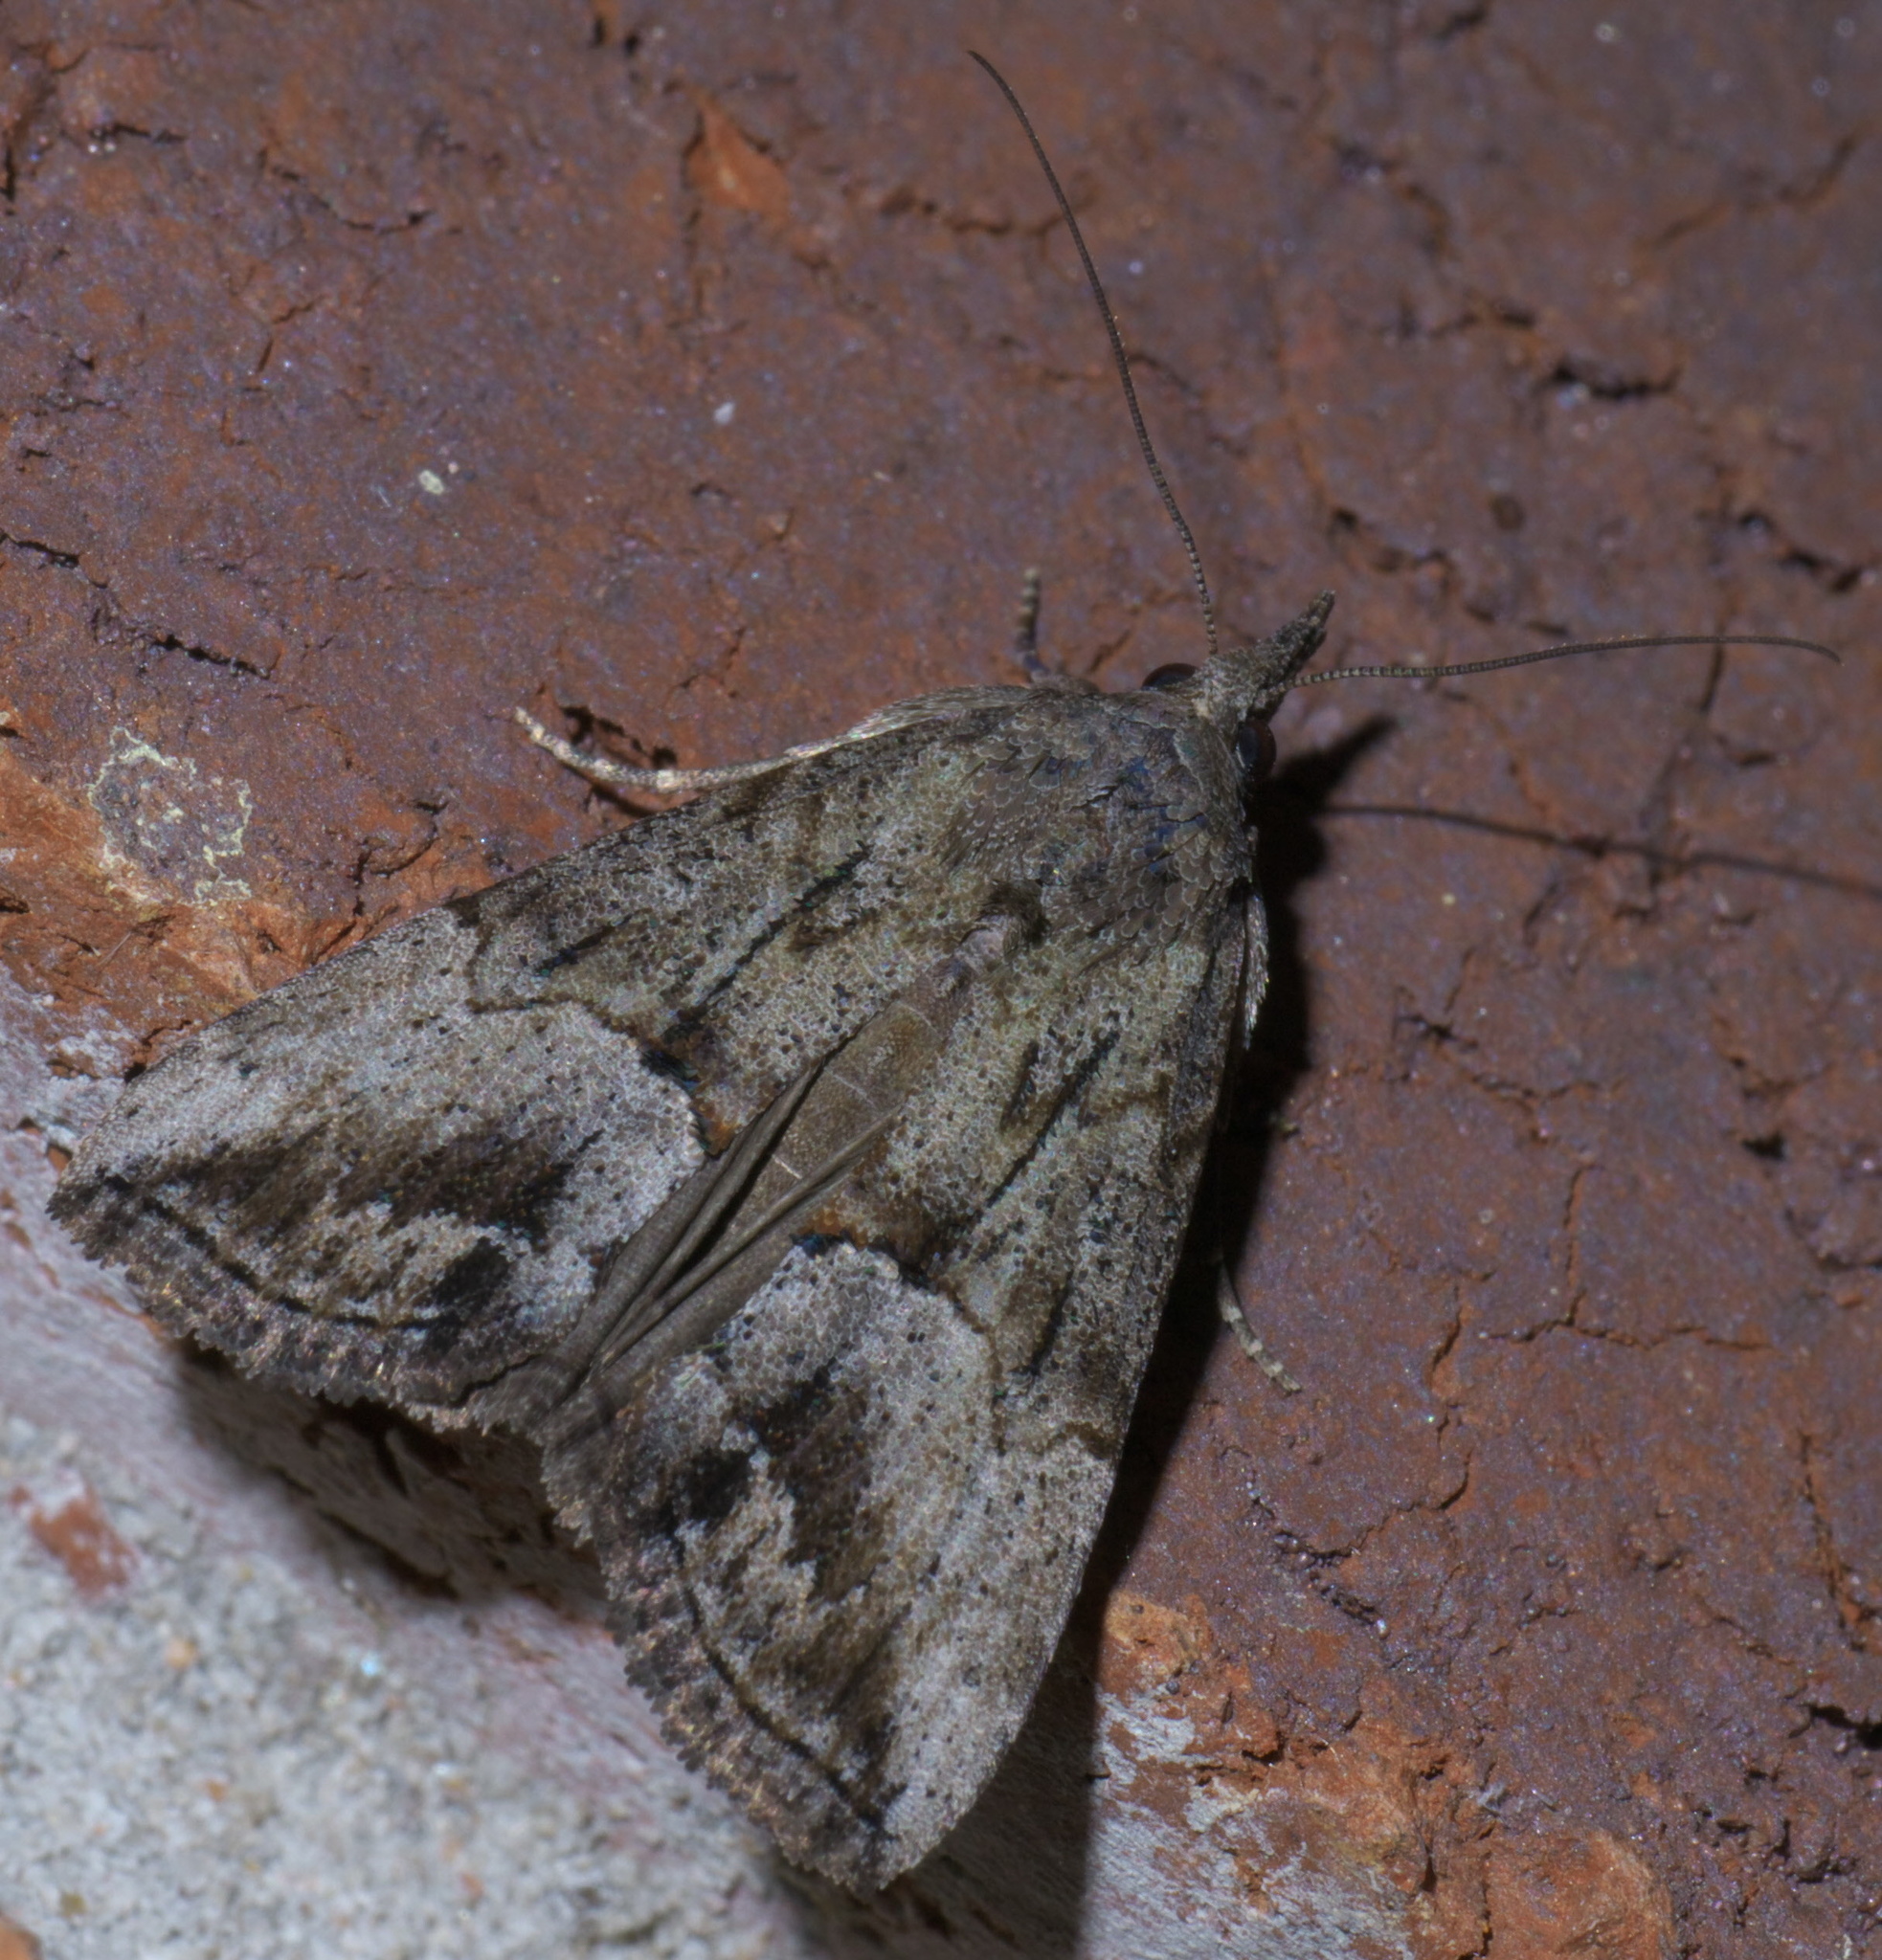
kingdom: Animalia
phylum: Arthropoda
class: Insecta
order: Lepidoptera
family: Erebidae
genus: Hypena
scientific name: Hypena scabra
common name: Green cloverworm
